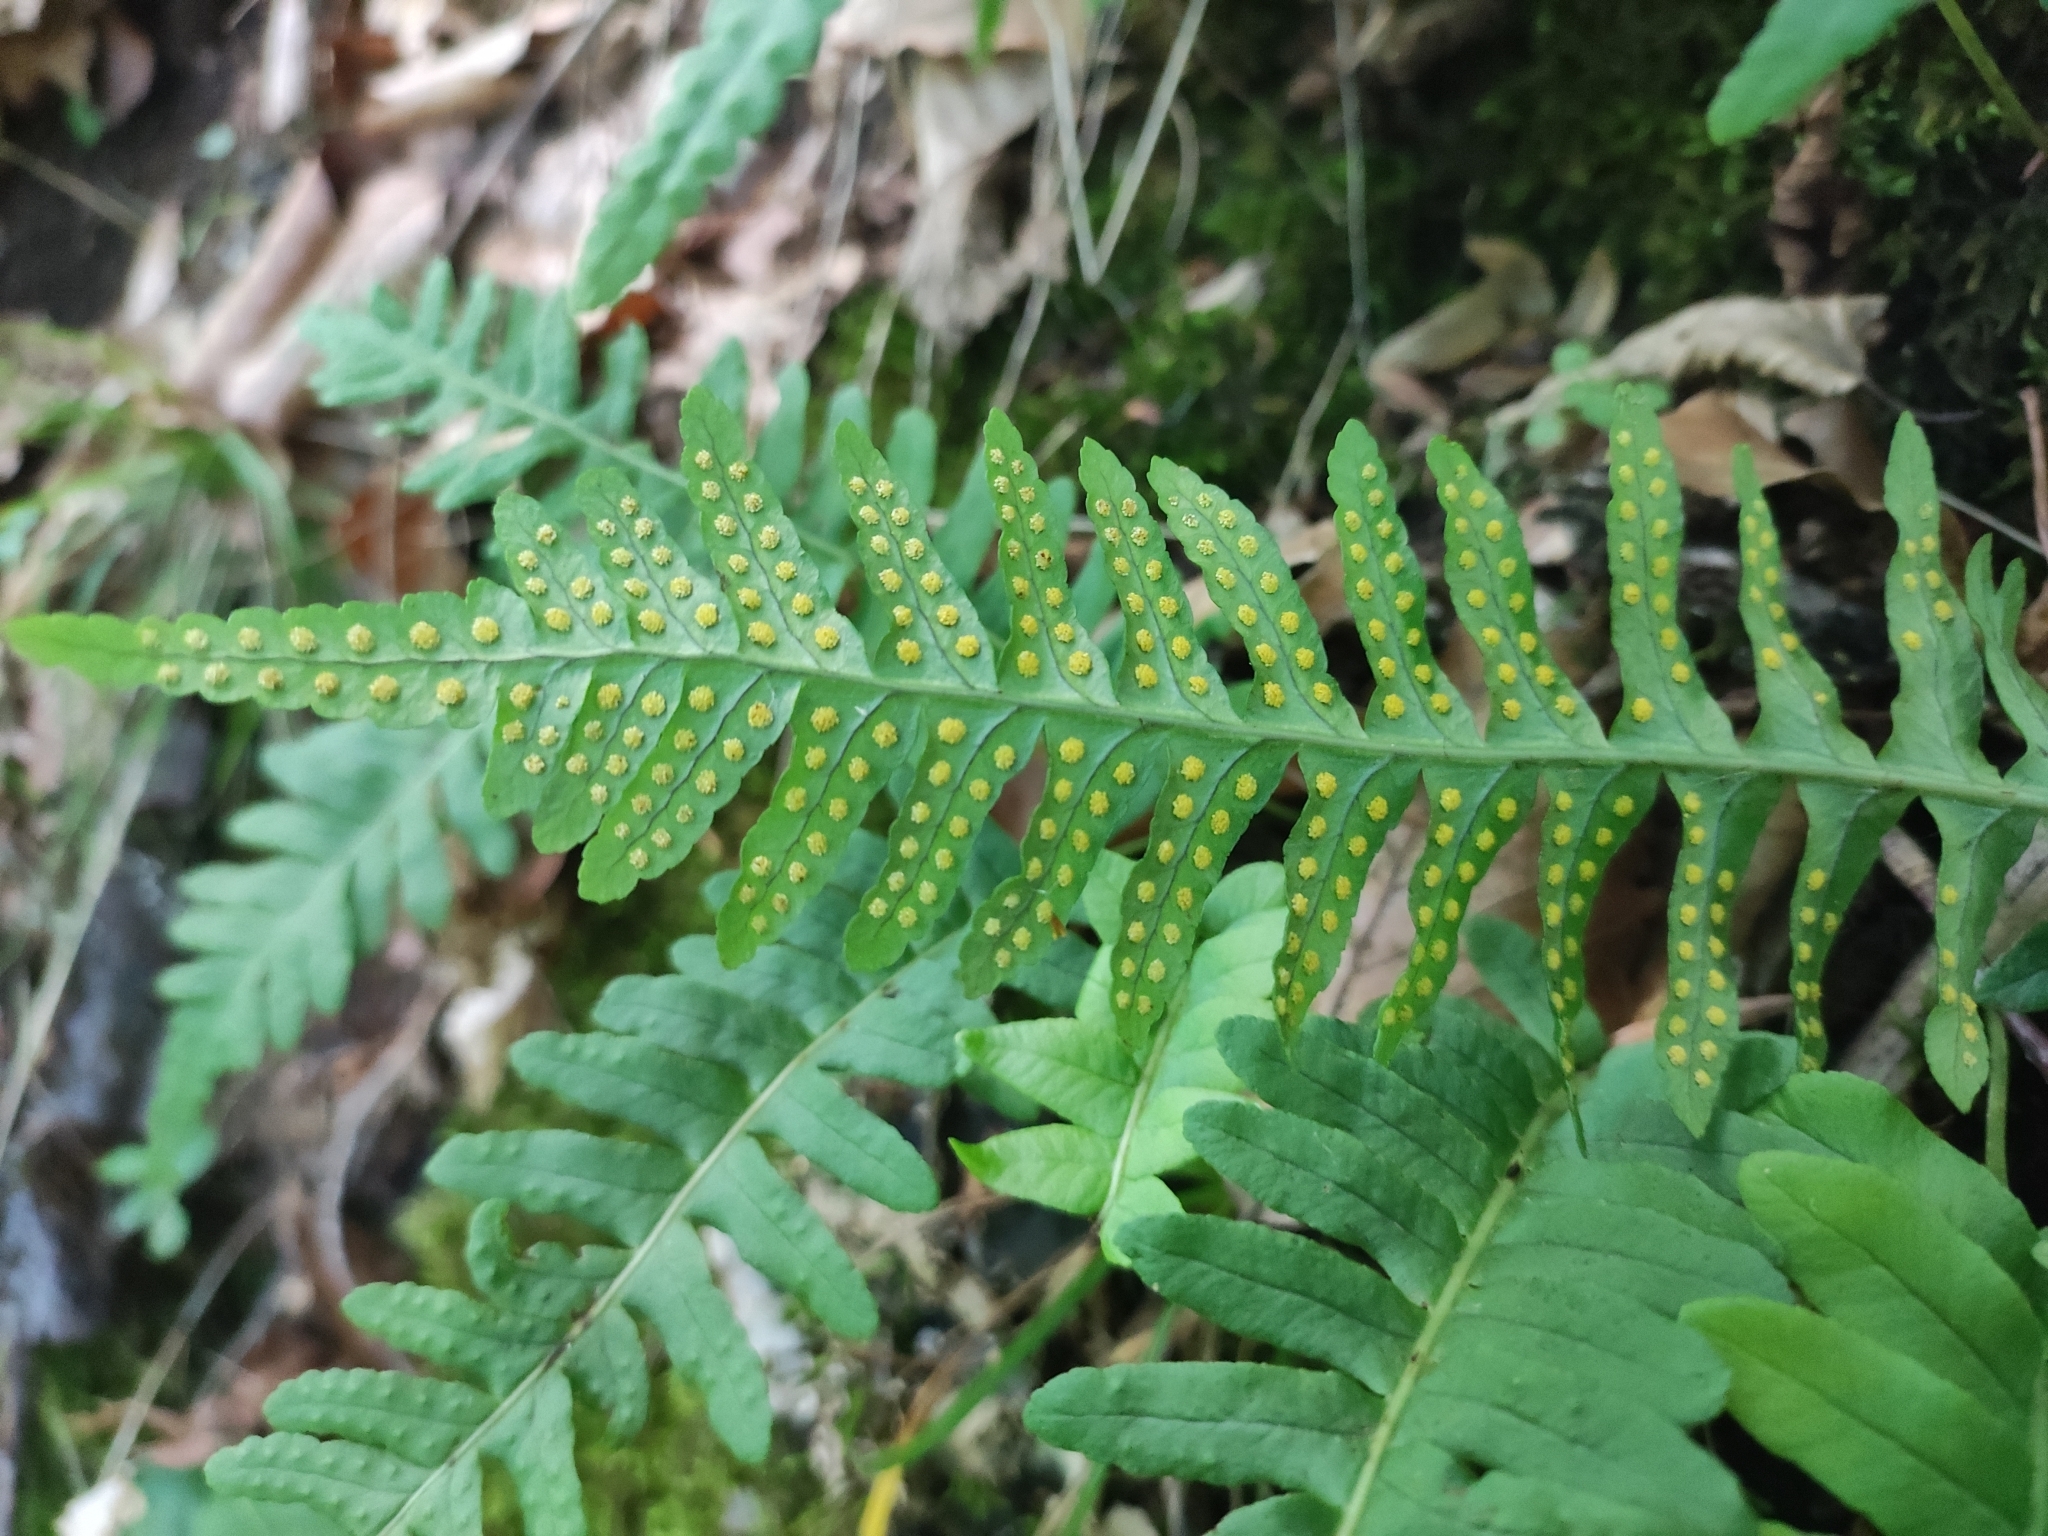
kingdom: Plantae
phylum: Tracheophyta
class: Polypodiopsida
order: Polypodiales
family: Polypodiaceae
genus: Polypodium
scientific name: Polypodium vulgare
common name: Common polypody
